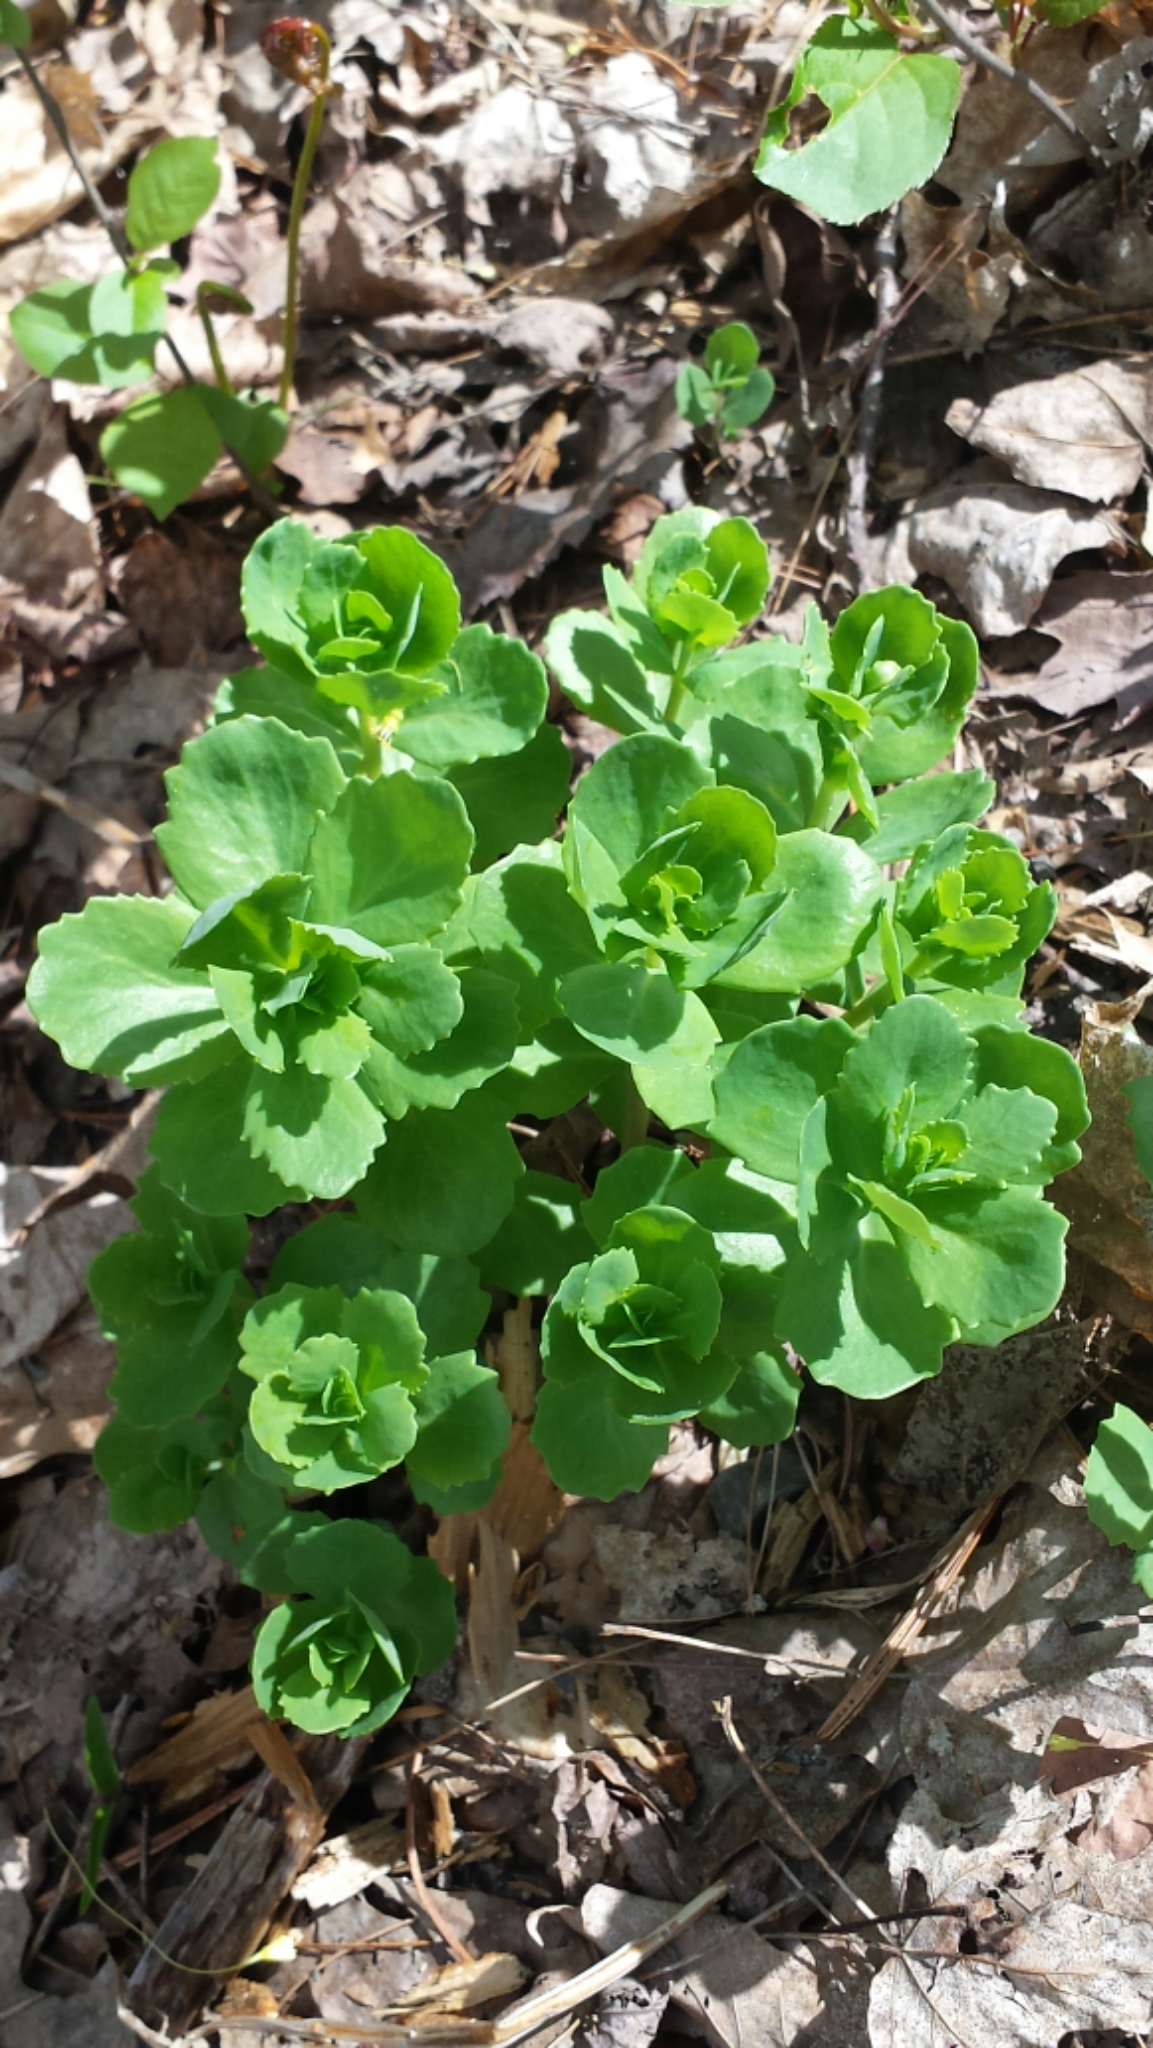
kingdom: Plantae
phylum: Tracheophyta
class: Magnoliopsida
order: Saxifragales
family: Crassulaceae
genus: Hylotelephium
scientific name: Hylotelephium telephium
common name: Live-forever
